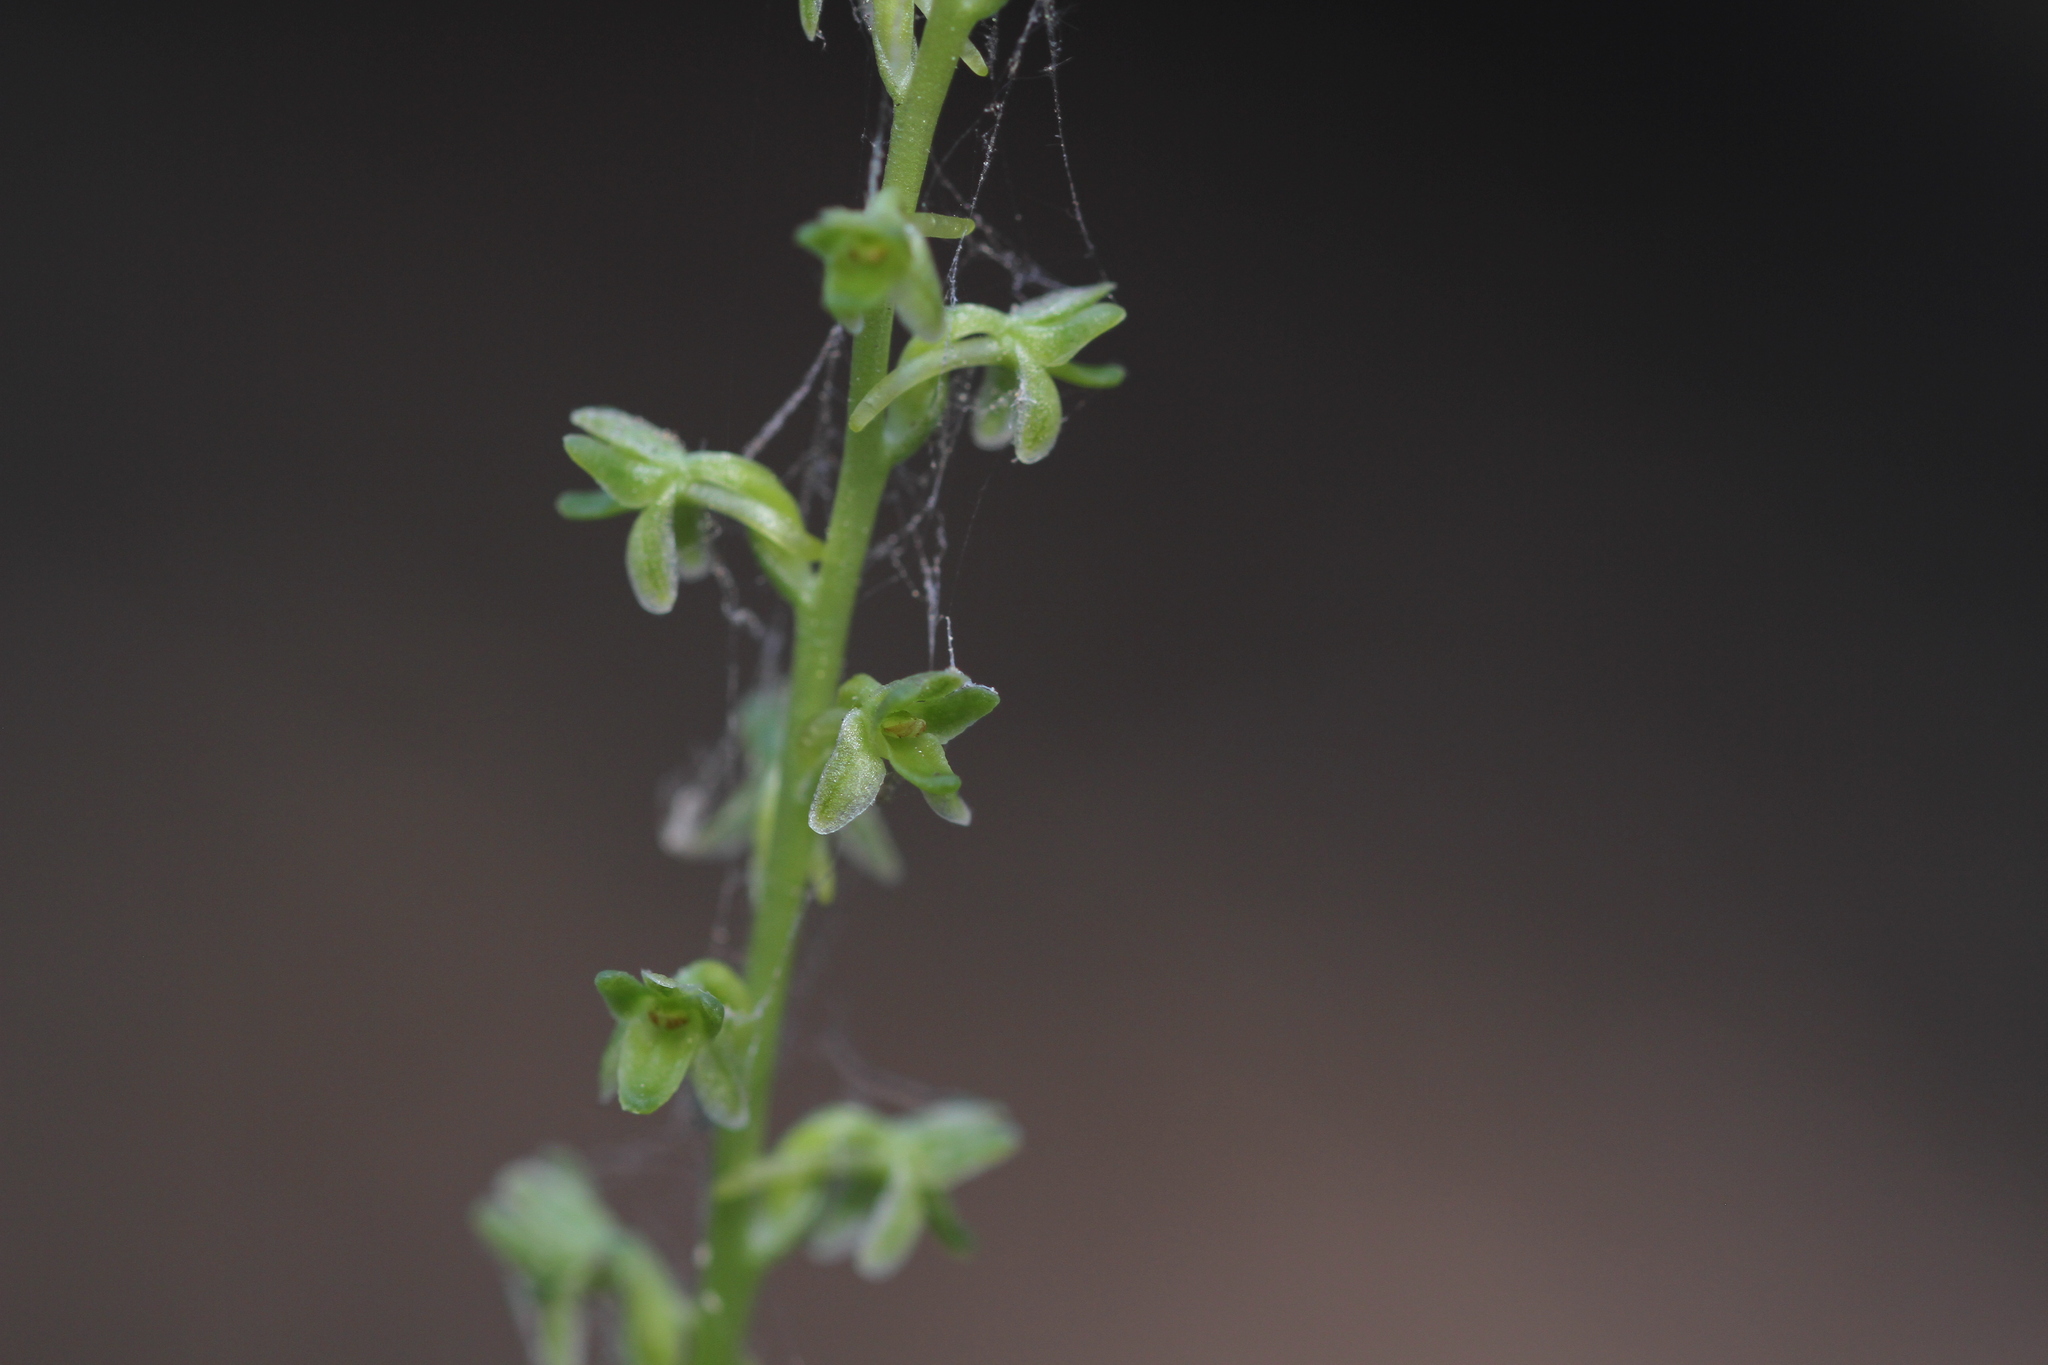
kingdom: Plantae
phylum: Tracheophyta
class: Liliopsida
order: Asparagales
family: Orchidaceae
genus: Platanthera
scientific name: Platanthera unalascensis
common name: Alaska bog orchid
